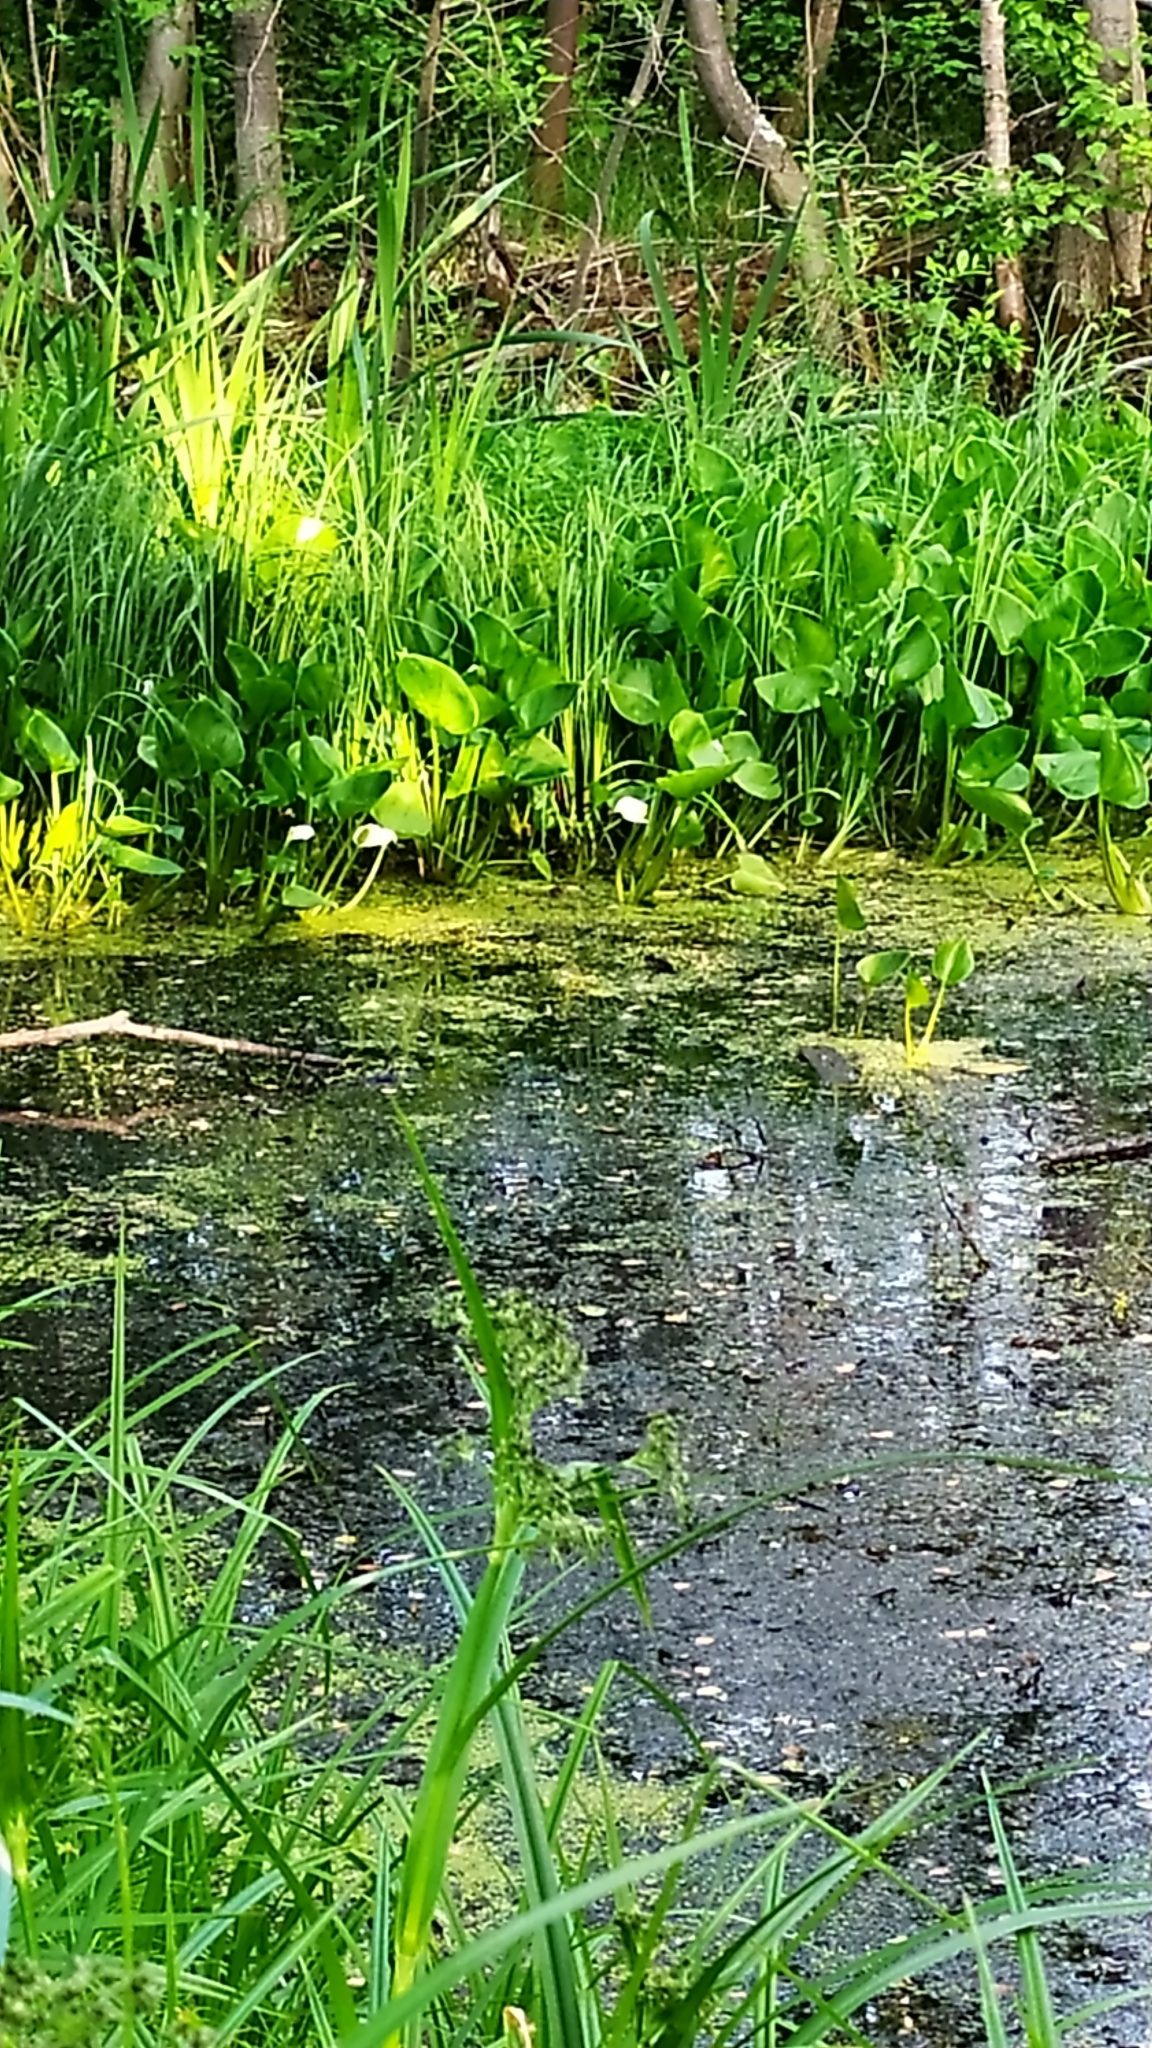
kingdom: Plantae
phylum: Tracheophyta
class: Liliopsida
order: Alismatales
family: Araceae
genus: Calla
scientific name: Calla palustris
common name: Bog arum
